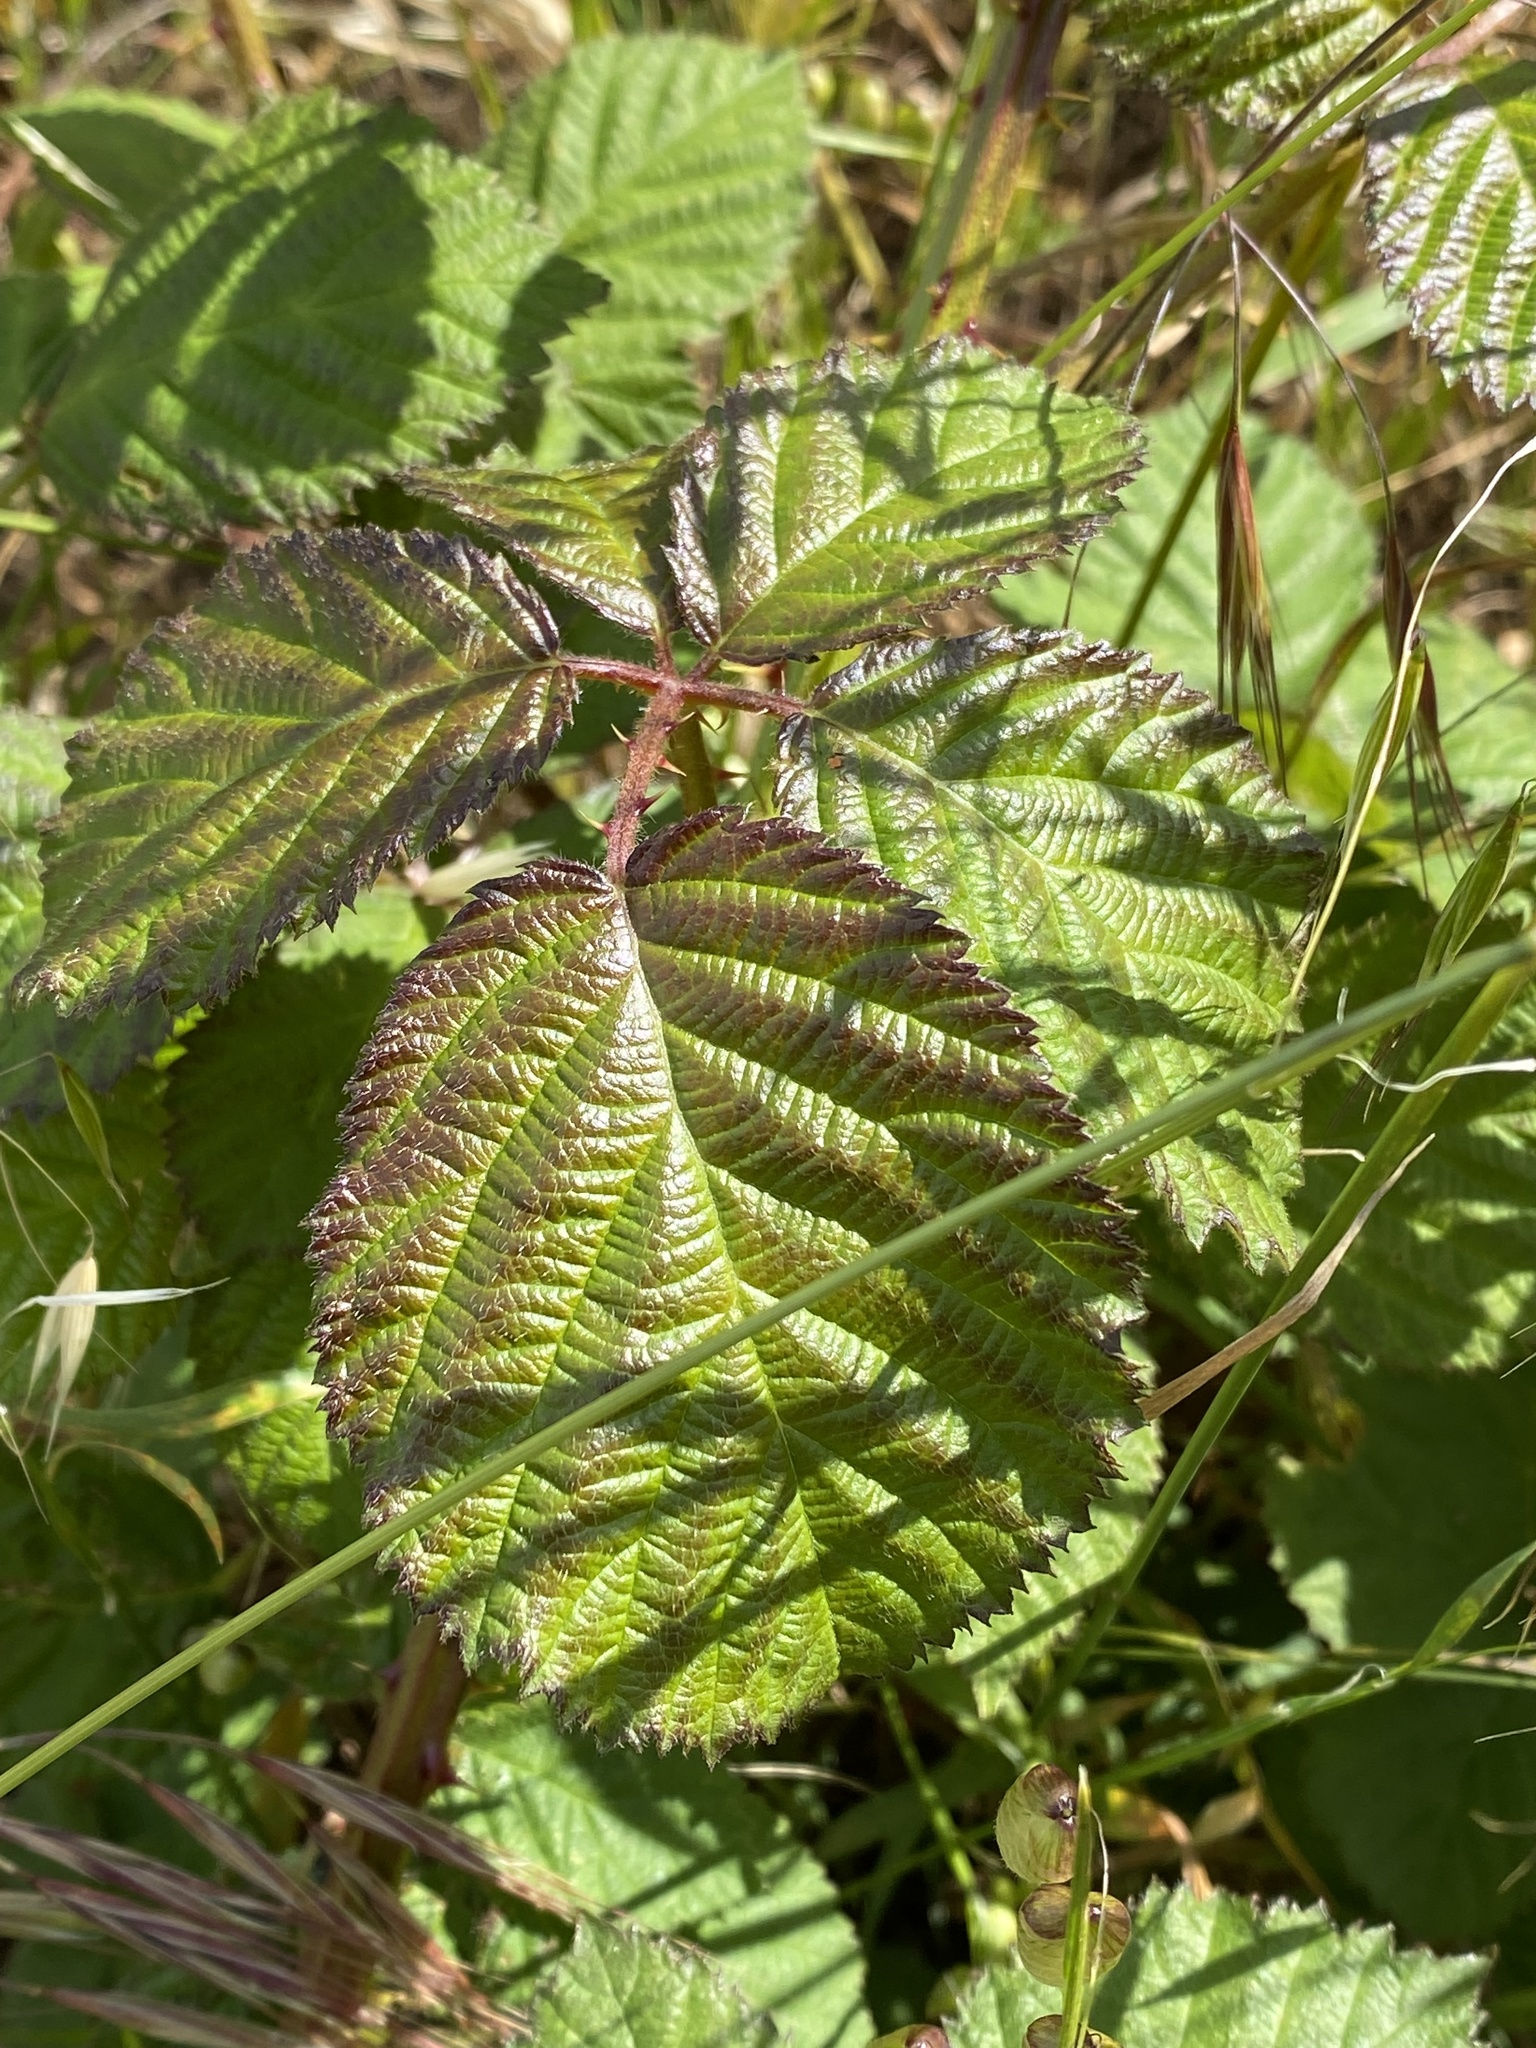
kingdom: Plantae
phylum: Tracheophyta
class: Magnoliopsida
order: Rosales
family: Rosaceae
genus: Rubus
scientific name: Rubus armeniacus
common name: Himalayan blackberry
